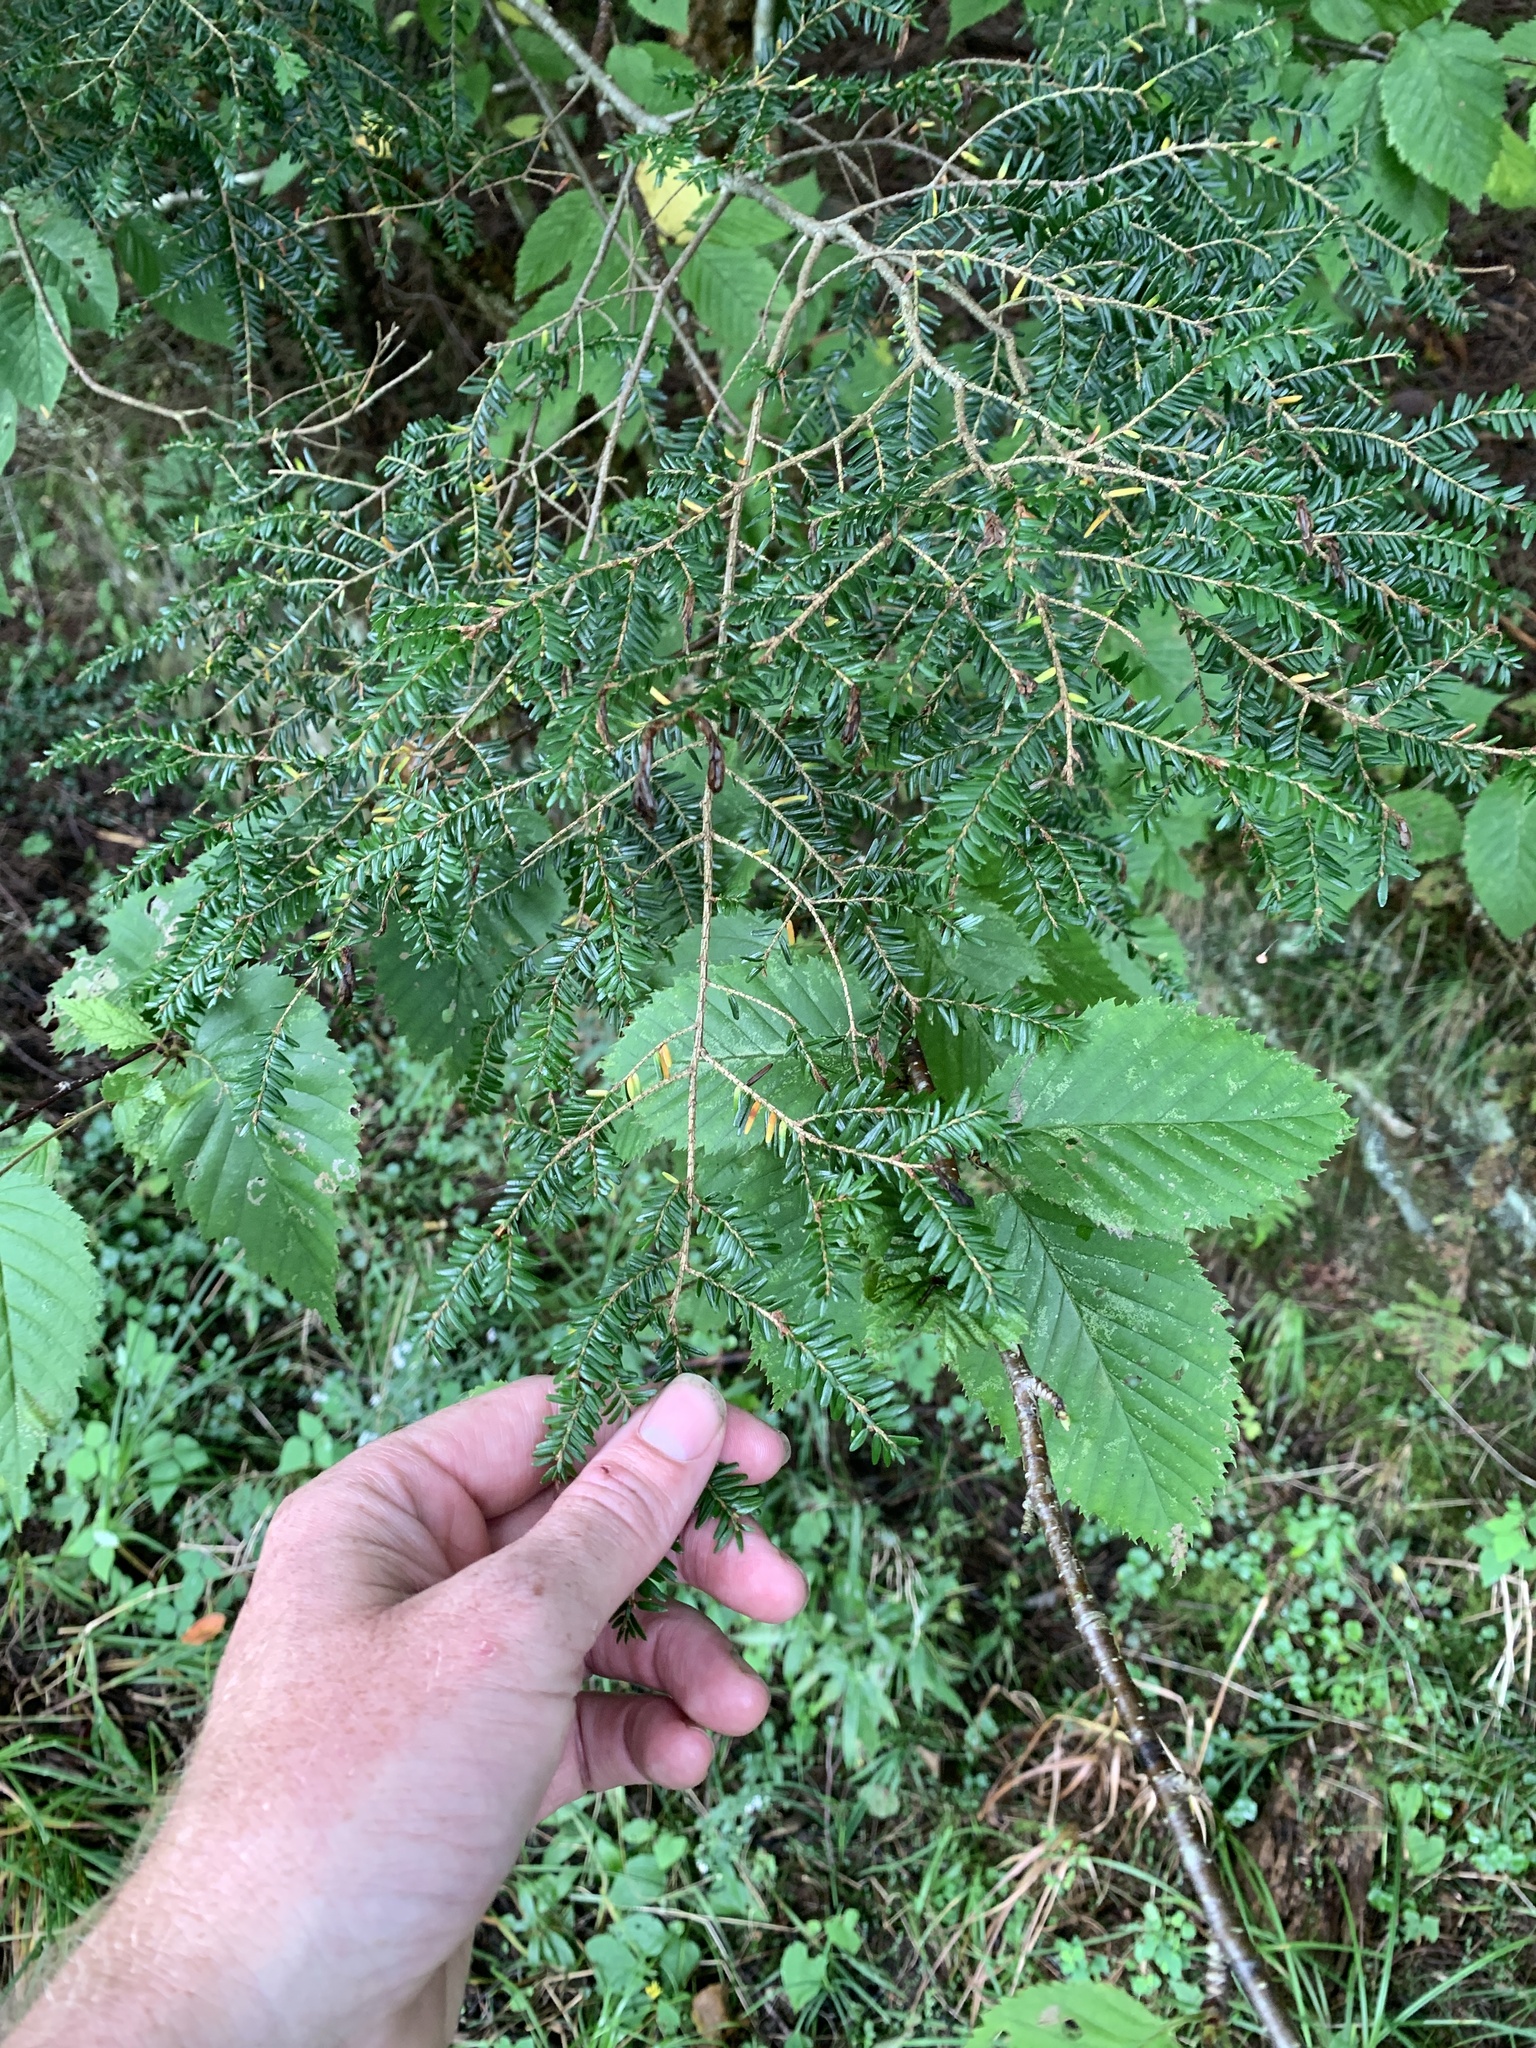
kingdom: Plantae
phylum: Tracheophyta
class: Pinopsida
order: Pinales
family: Pinaceae
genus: Tsuga
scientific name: Tsuga canadensis
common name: Eastern hemlock
